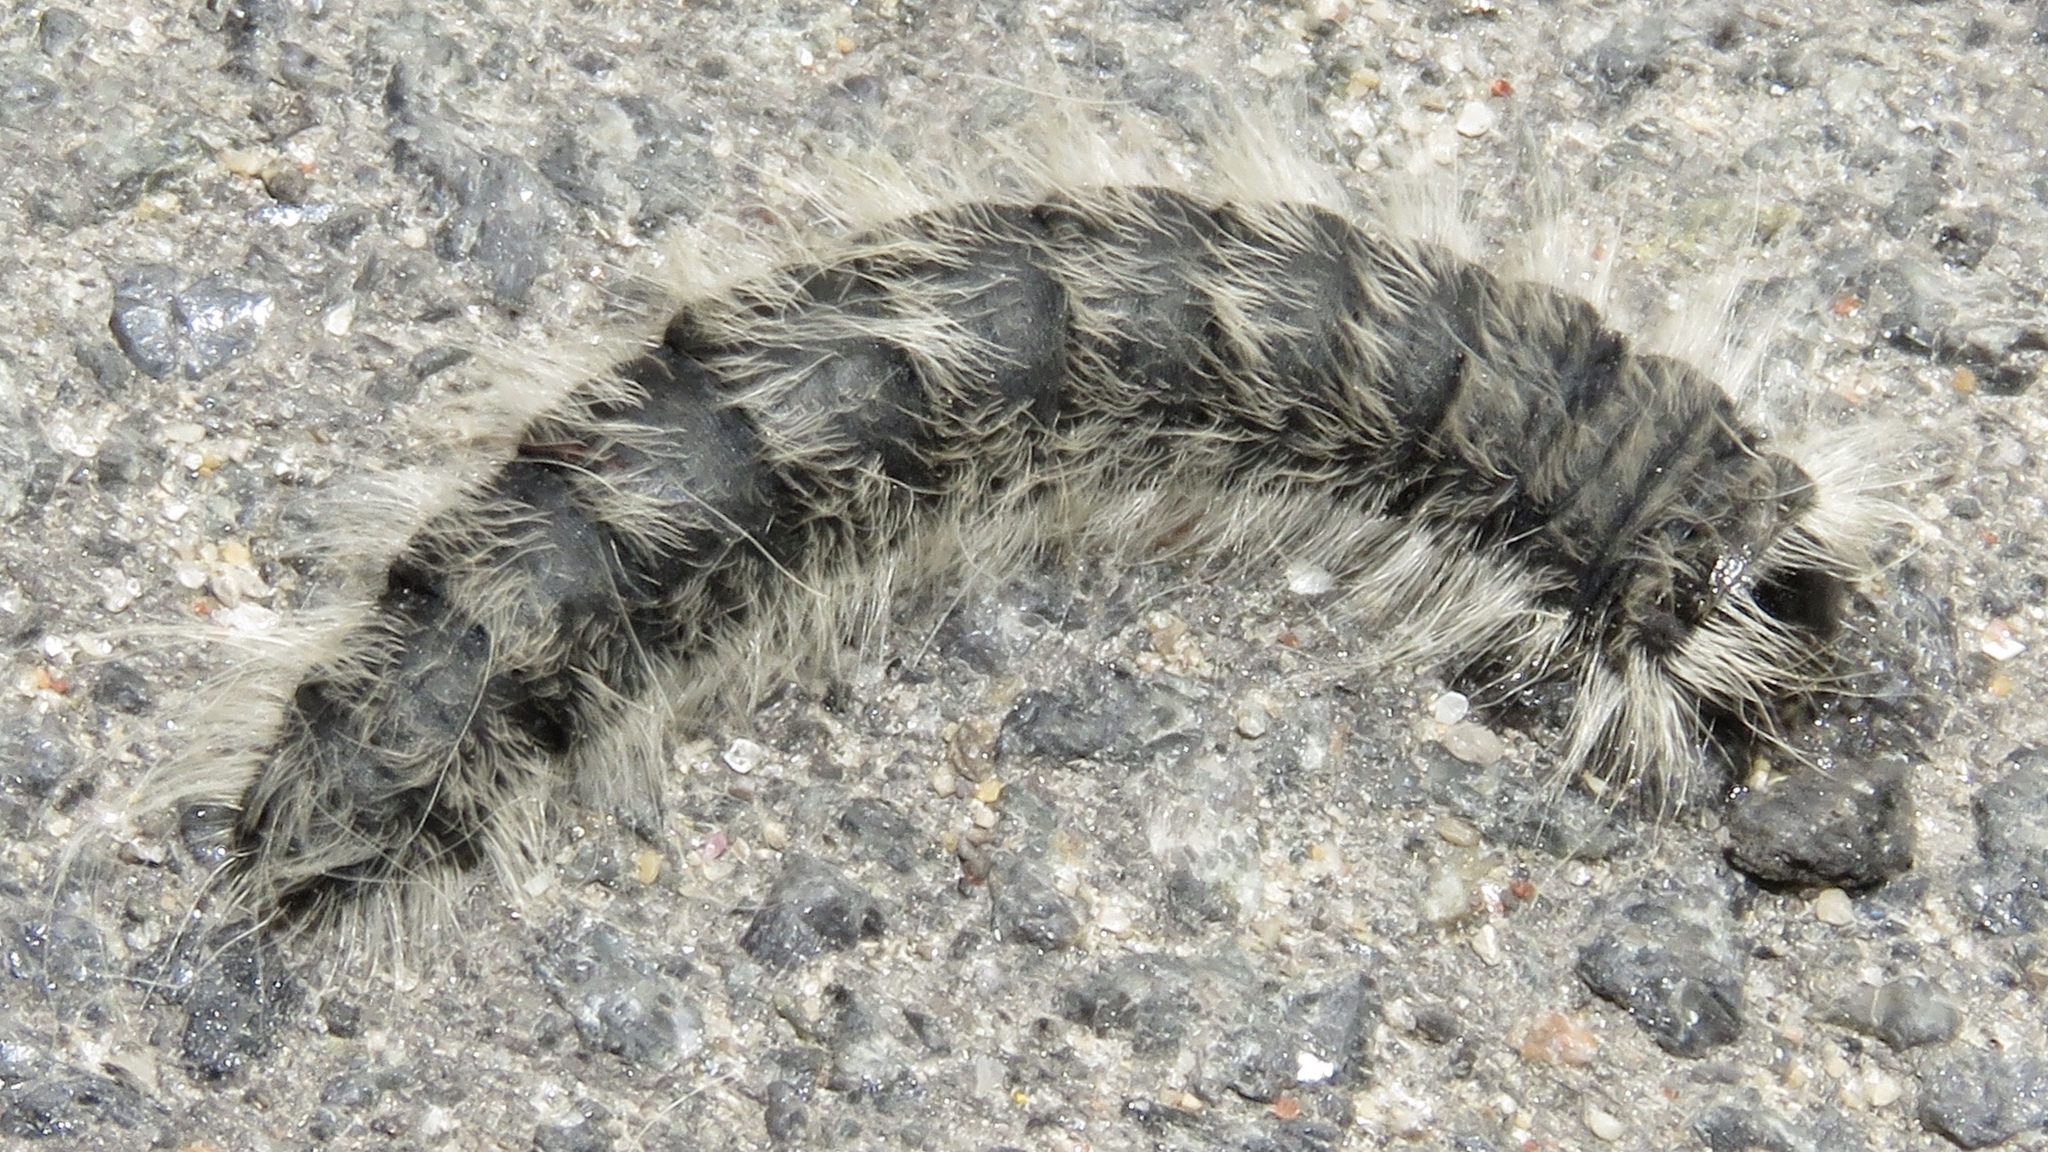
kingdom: Animalia
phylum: Arthropoda
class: Insecta
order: Lepidoptera
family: Notodontidae
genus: Datana
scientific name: Datana integerrima
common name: Walnut caterpillar
